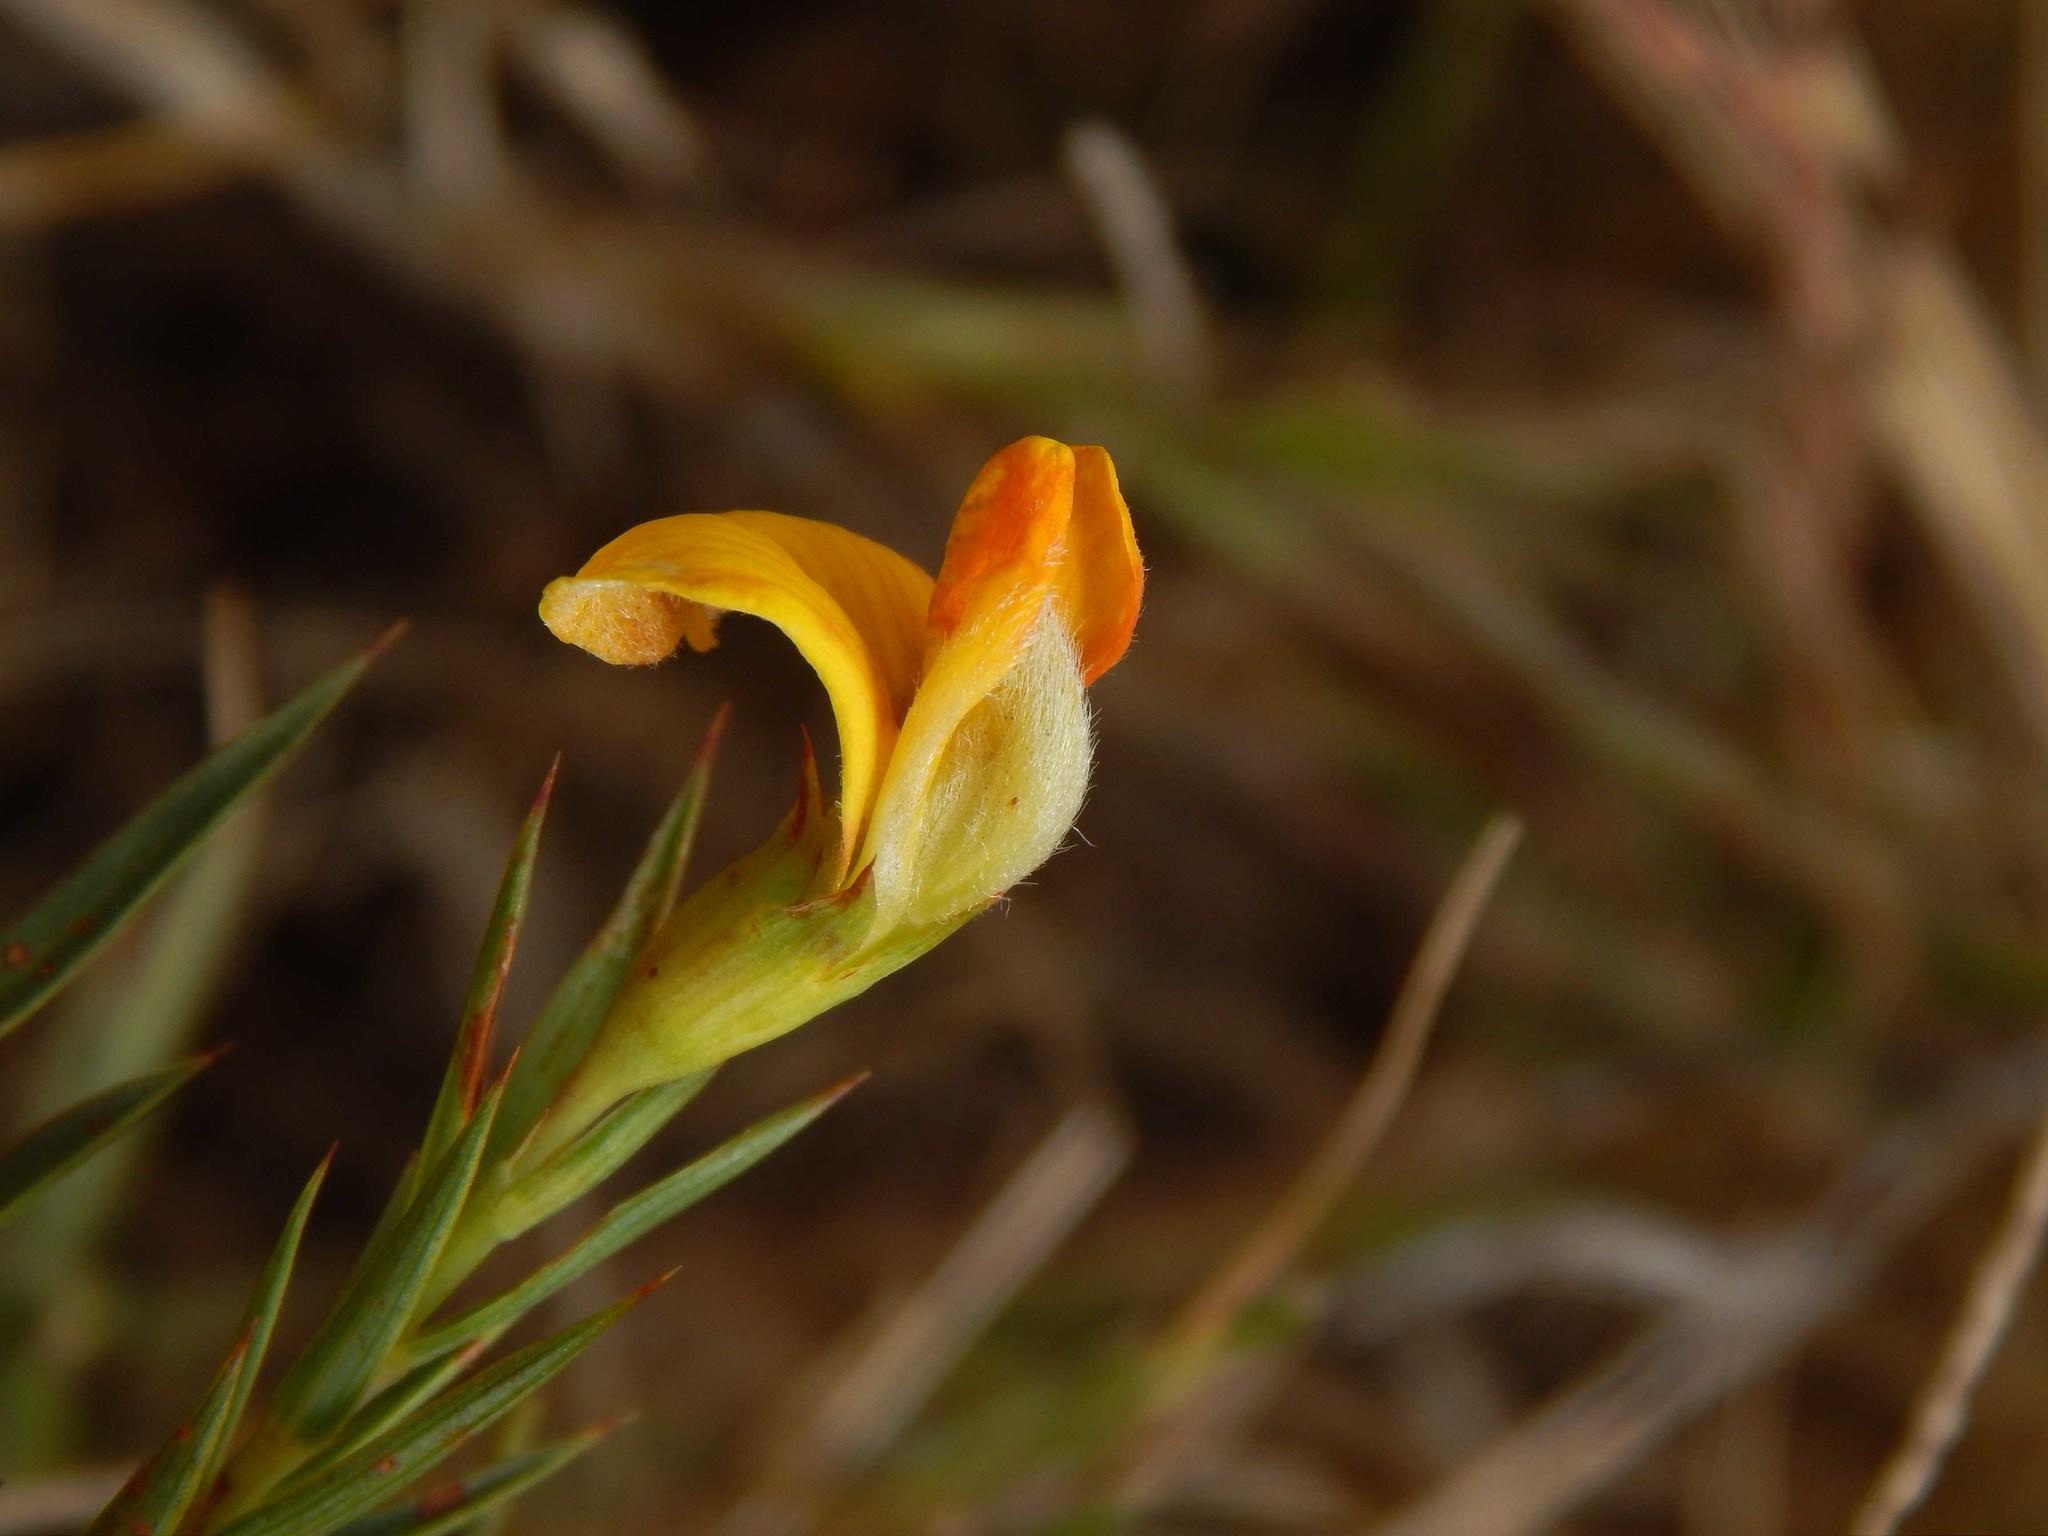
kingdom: Plantae
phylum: Tracheophyta
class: Magnoliopsida
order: Fabales
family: Fabaceae
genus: Aspalathus
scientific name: Aspalathus angustifolia
